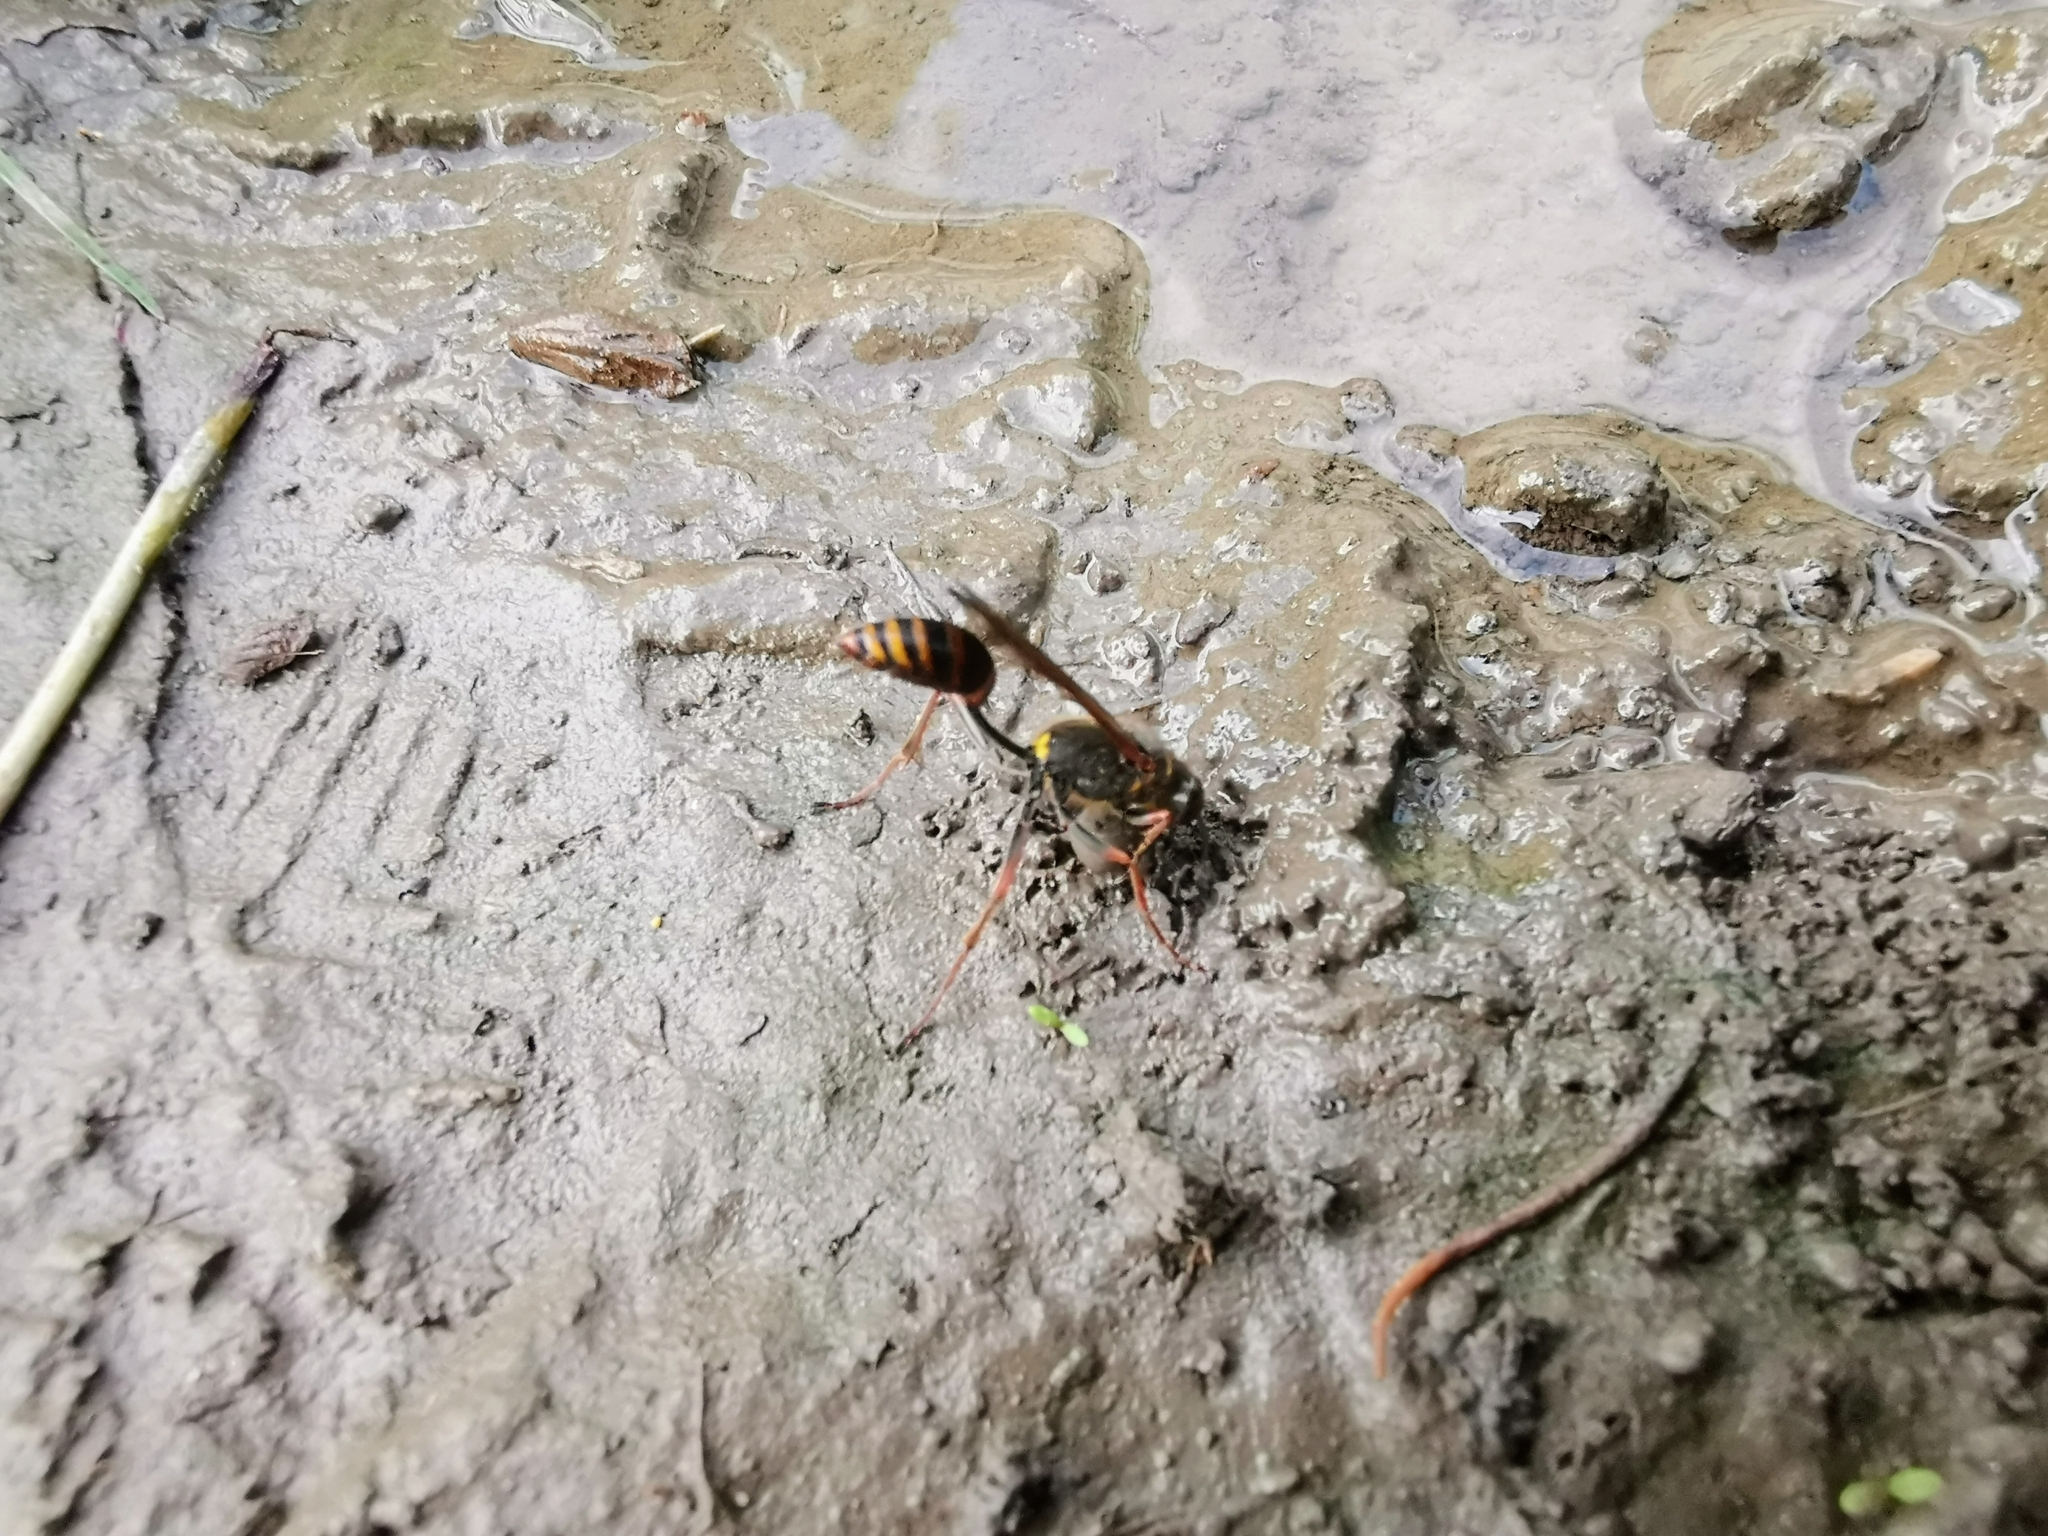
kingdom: Animalia
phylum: Arthropoda
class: Insecta
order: Hymenoptera
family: Sphecidae
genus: Sceliphron
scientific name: Sceliphron curvatum
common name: Pèlopèe
